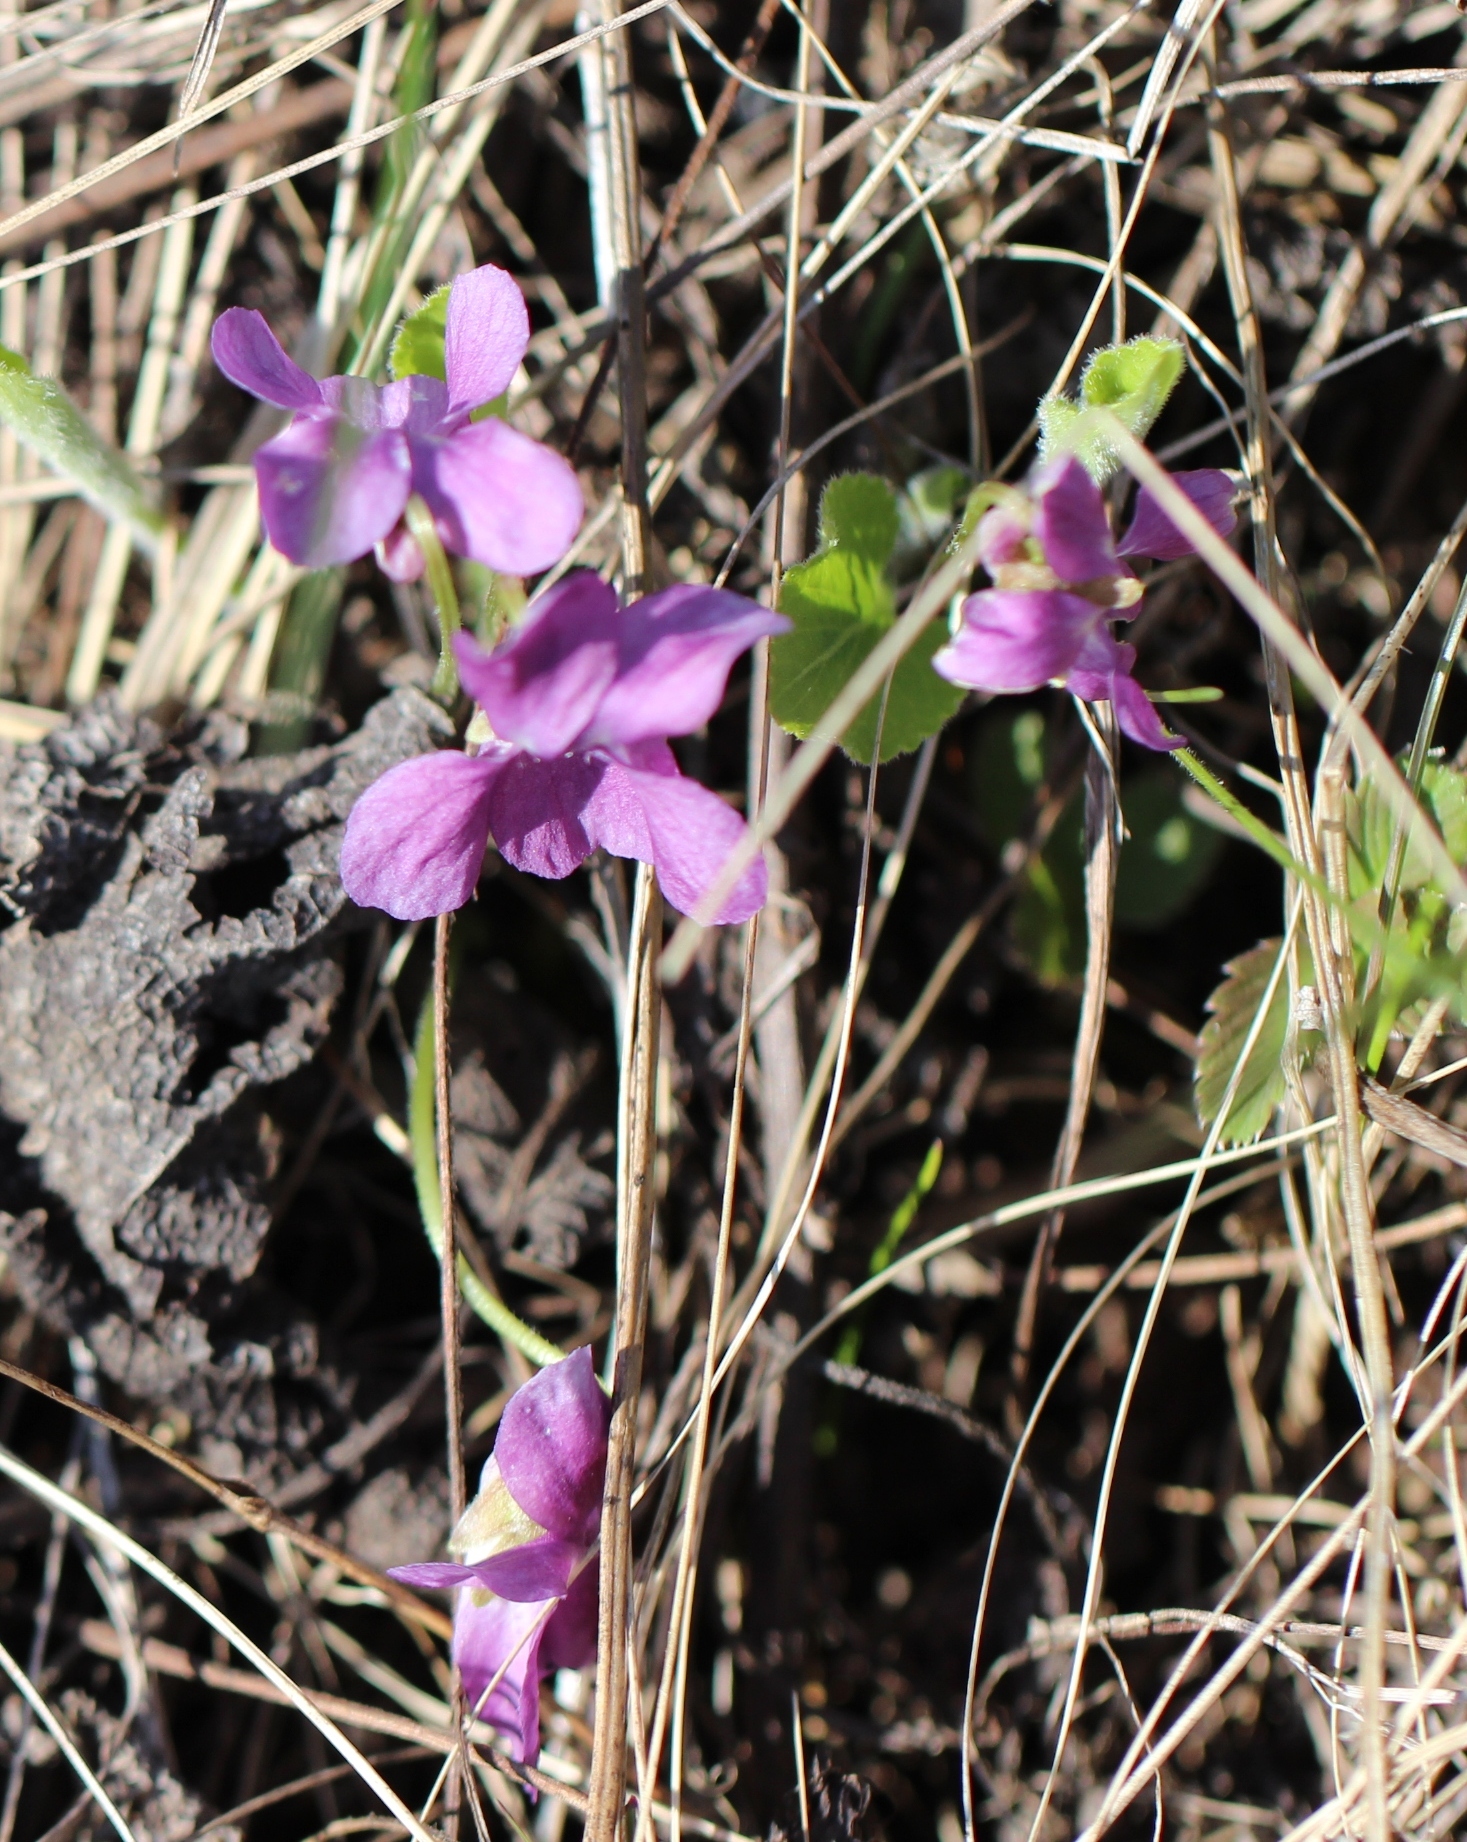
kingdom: Plantae
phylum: Tracheophyta
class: Magnoliopsida
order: Malpighiales
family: Violaceae
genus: Viola
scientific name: Viola hirta
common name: Hairy violet
